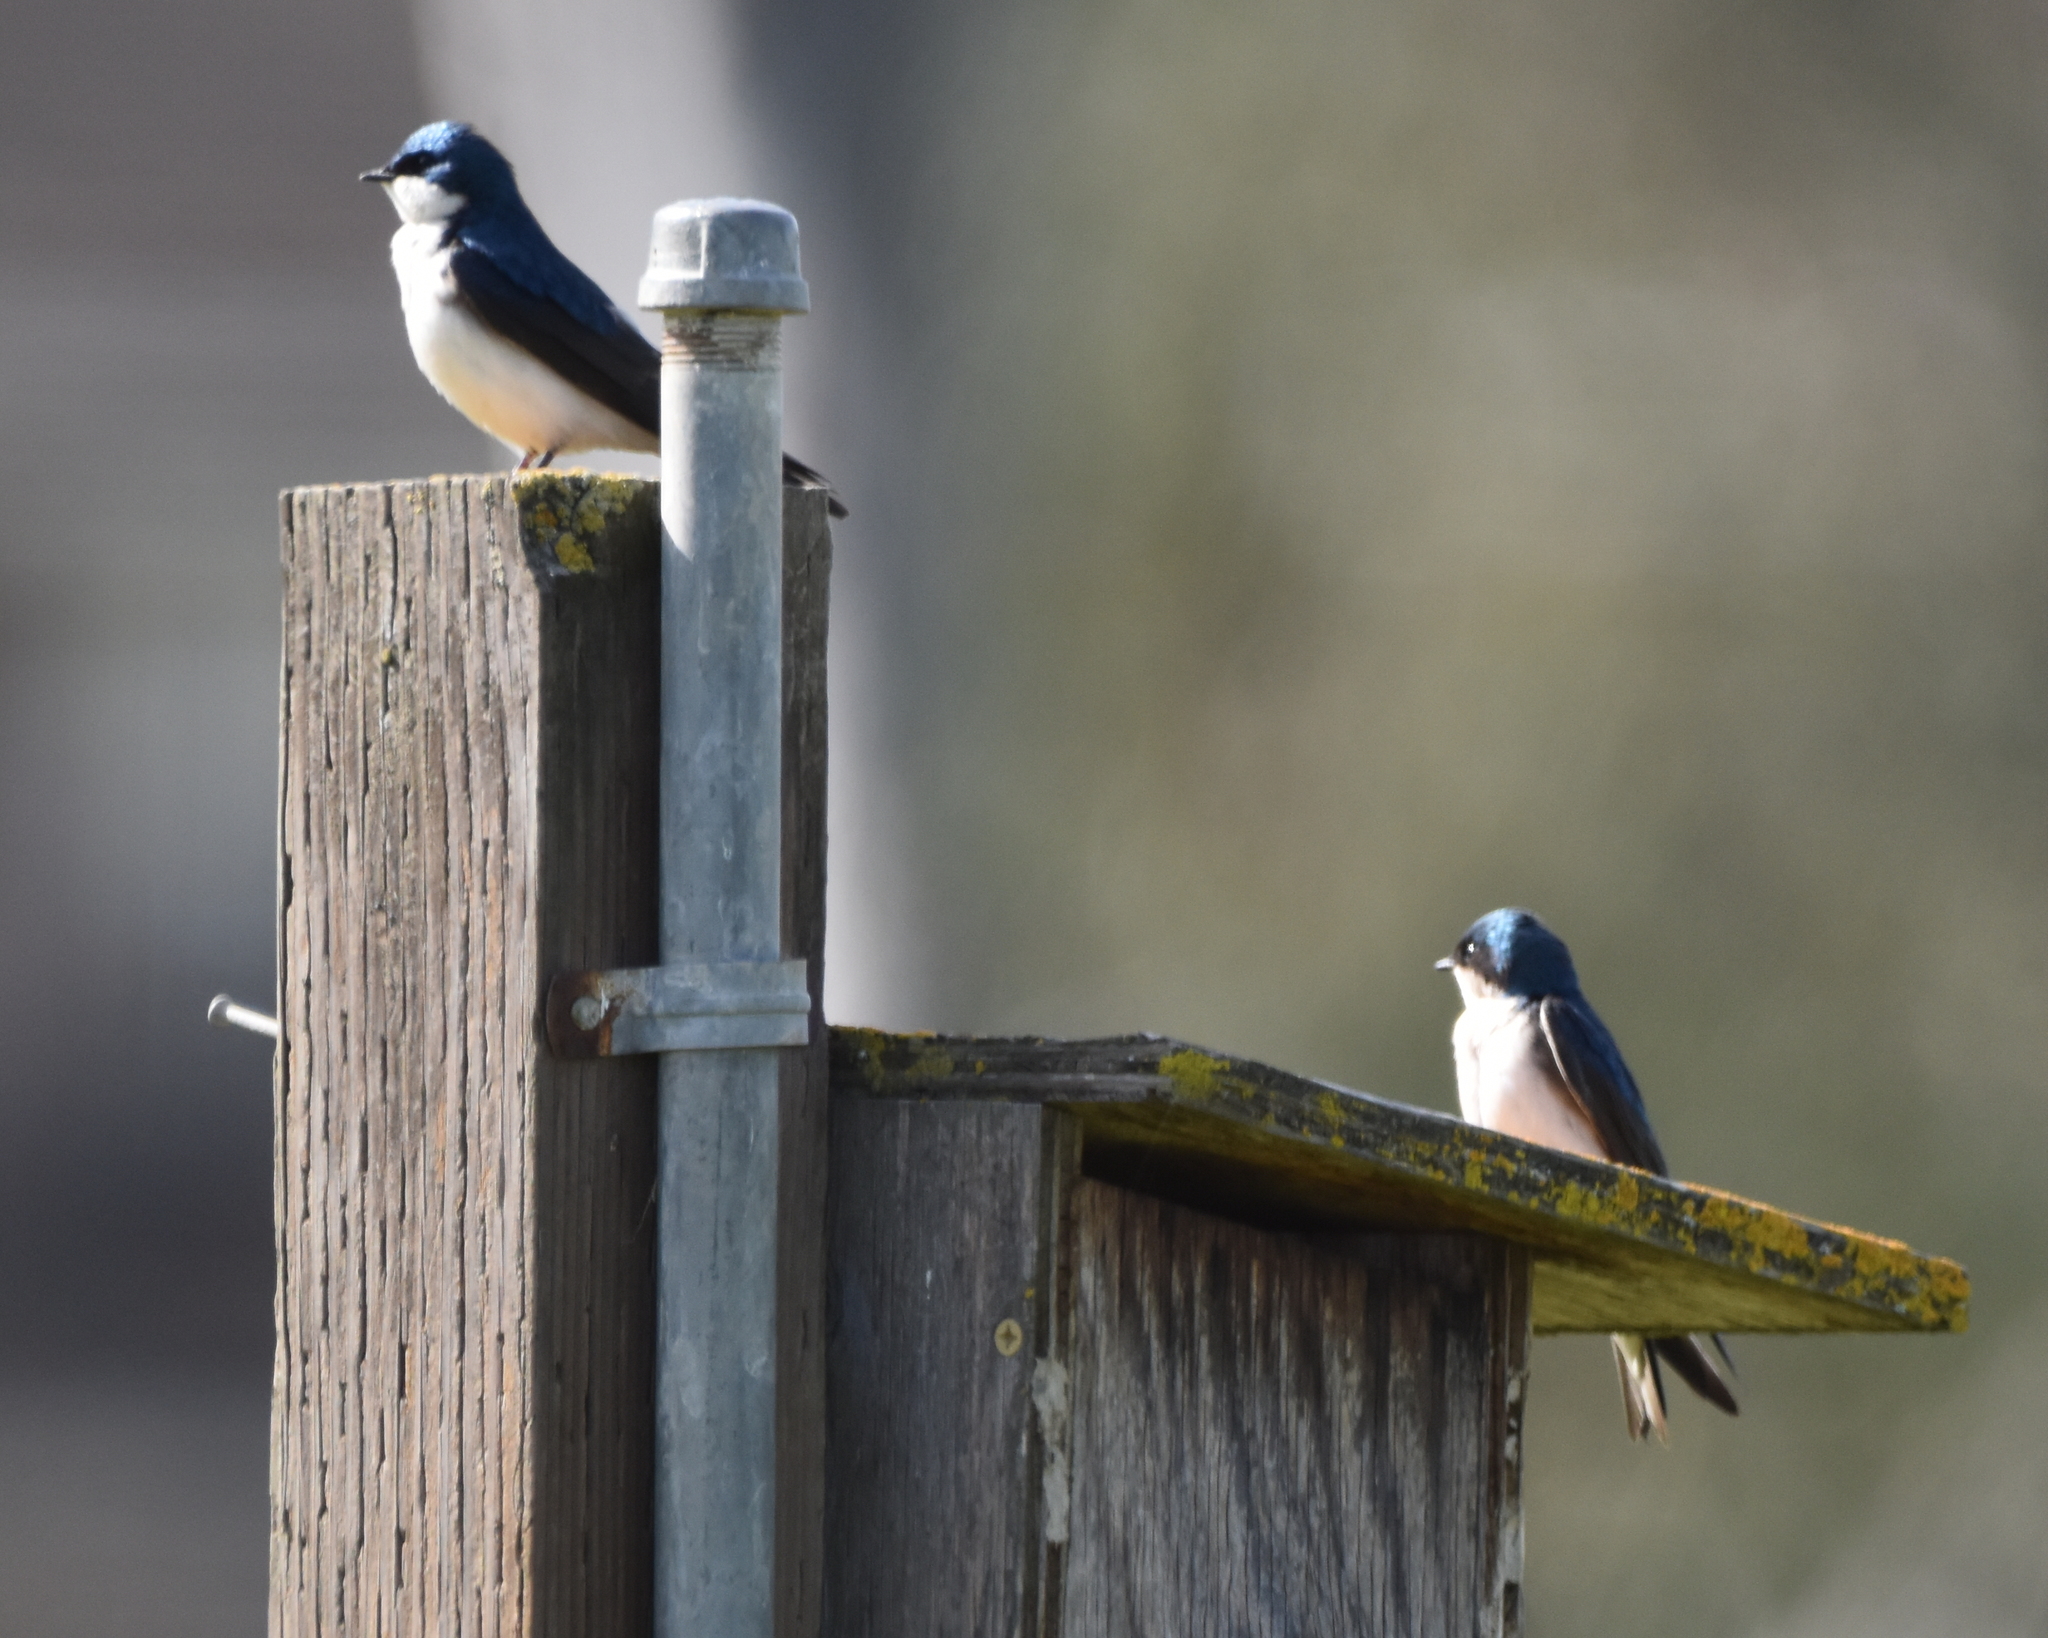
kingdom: Animalia
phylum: Chordata
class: Aves
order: Passeriformes
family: Hirundinidae
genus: Tachycineta
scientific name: Tachycineta bicolor
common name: Tree swallow
